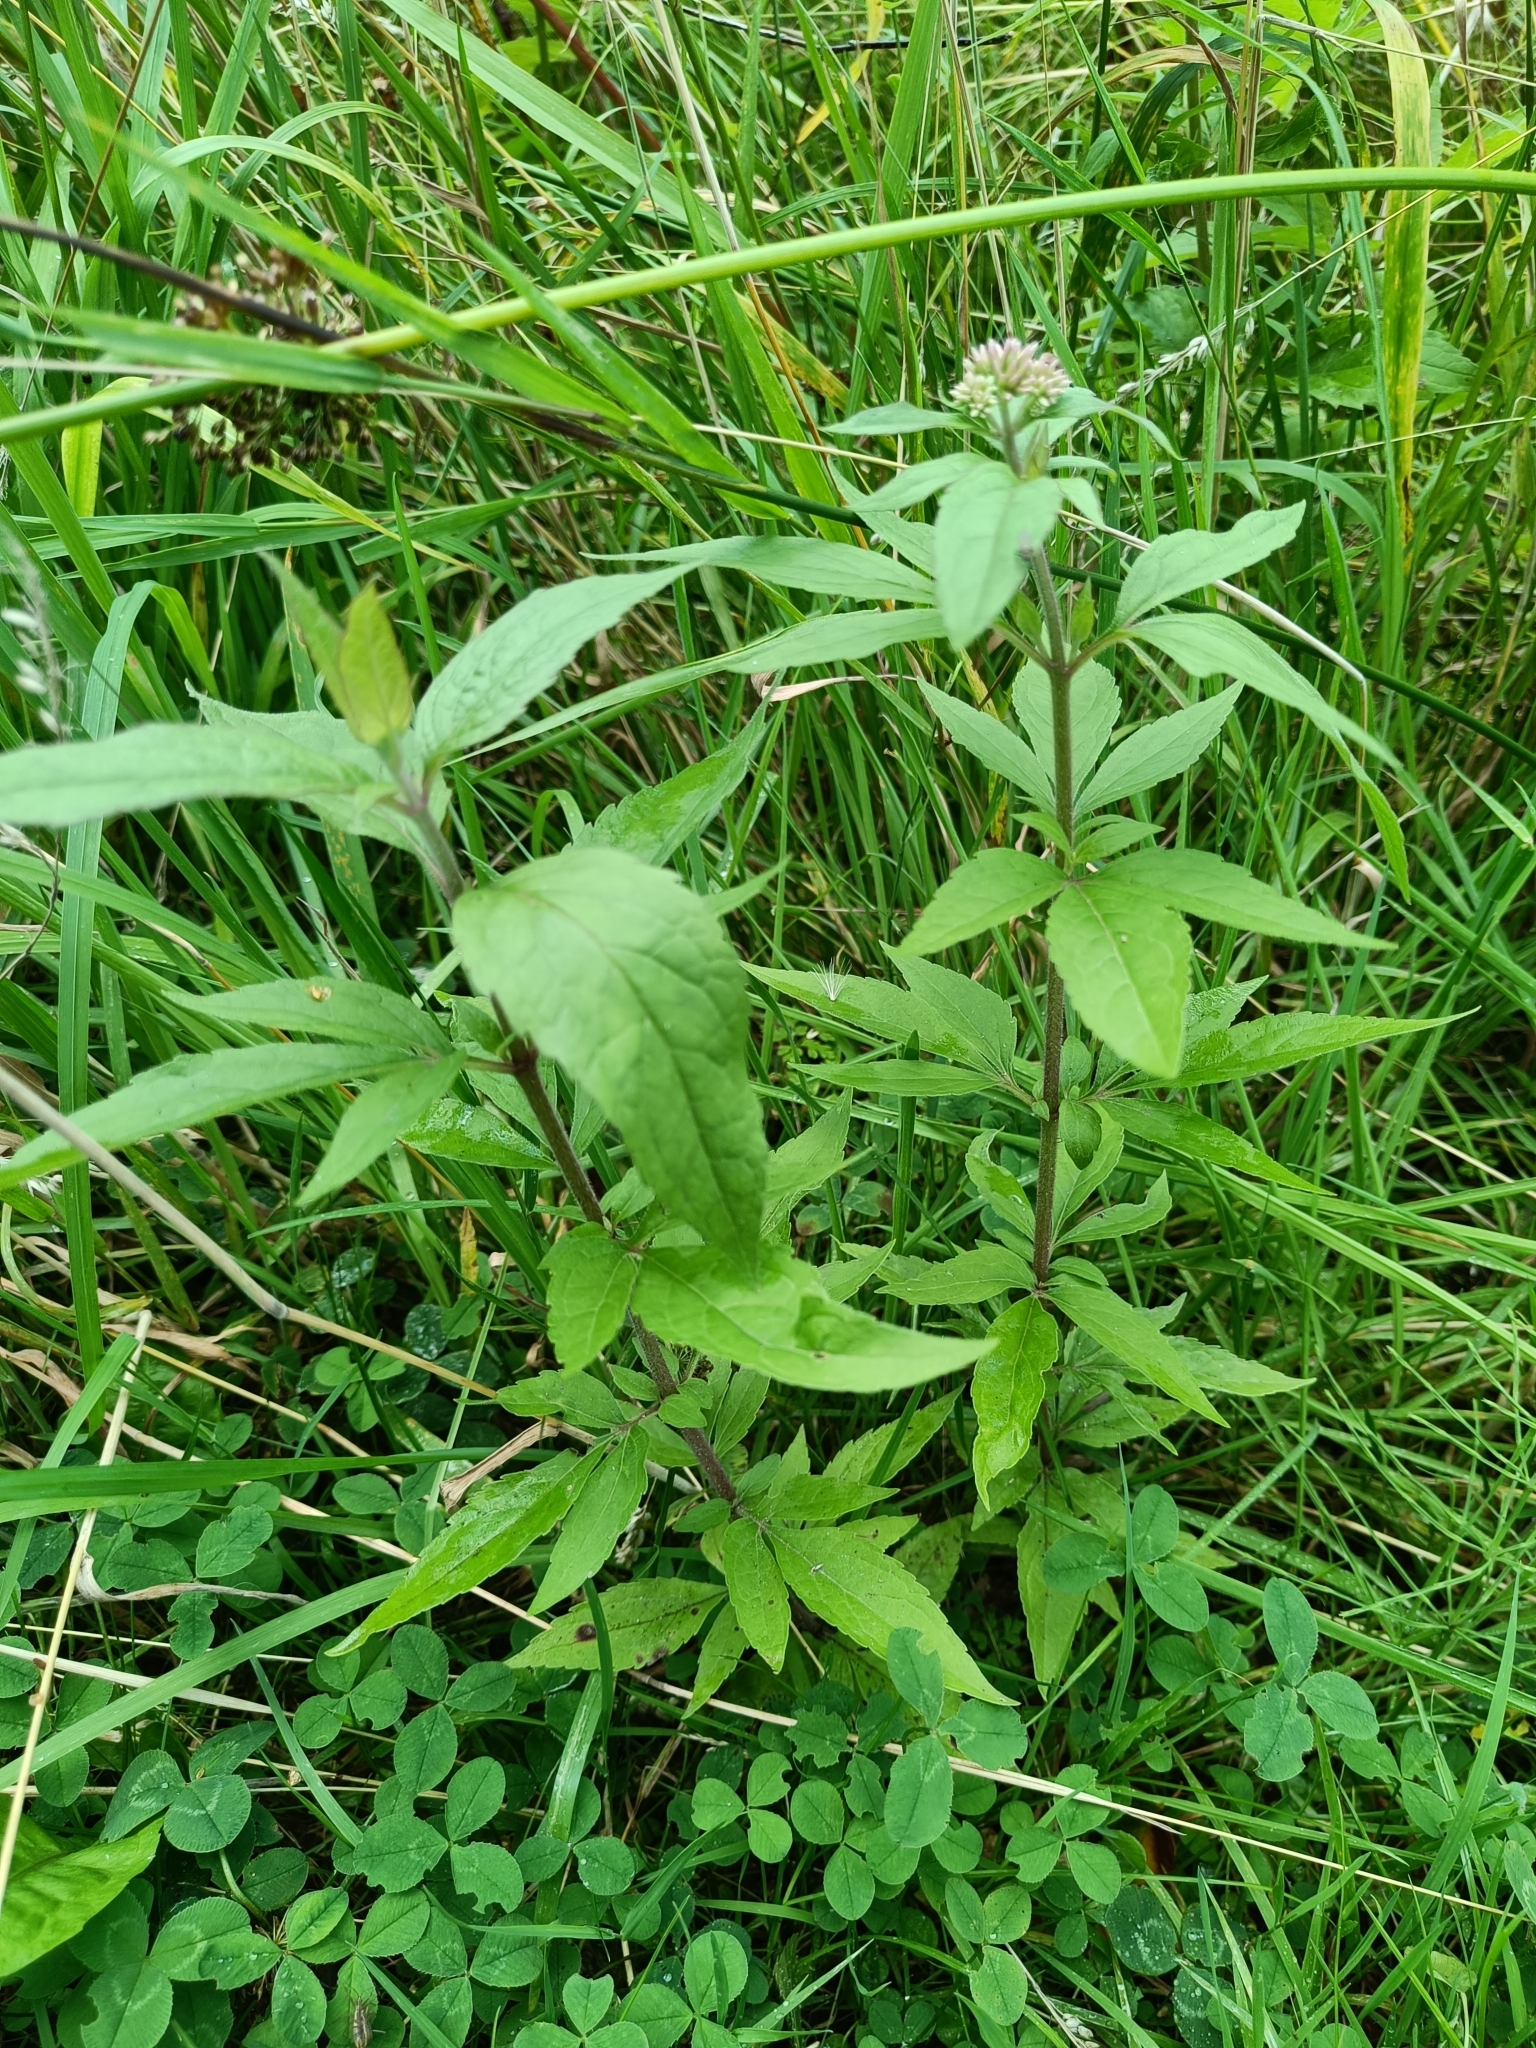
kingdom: Plantae
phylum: Tracheophyta
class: Magnoliopsida
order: Asterales
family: Asteraceae
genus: Eupatorium
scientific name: Eupatorium cannabinum
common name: Hemp-agrimony
